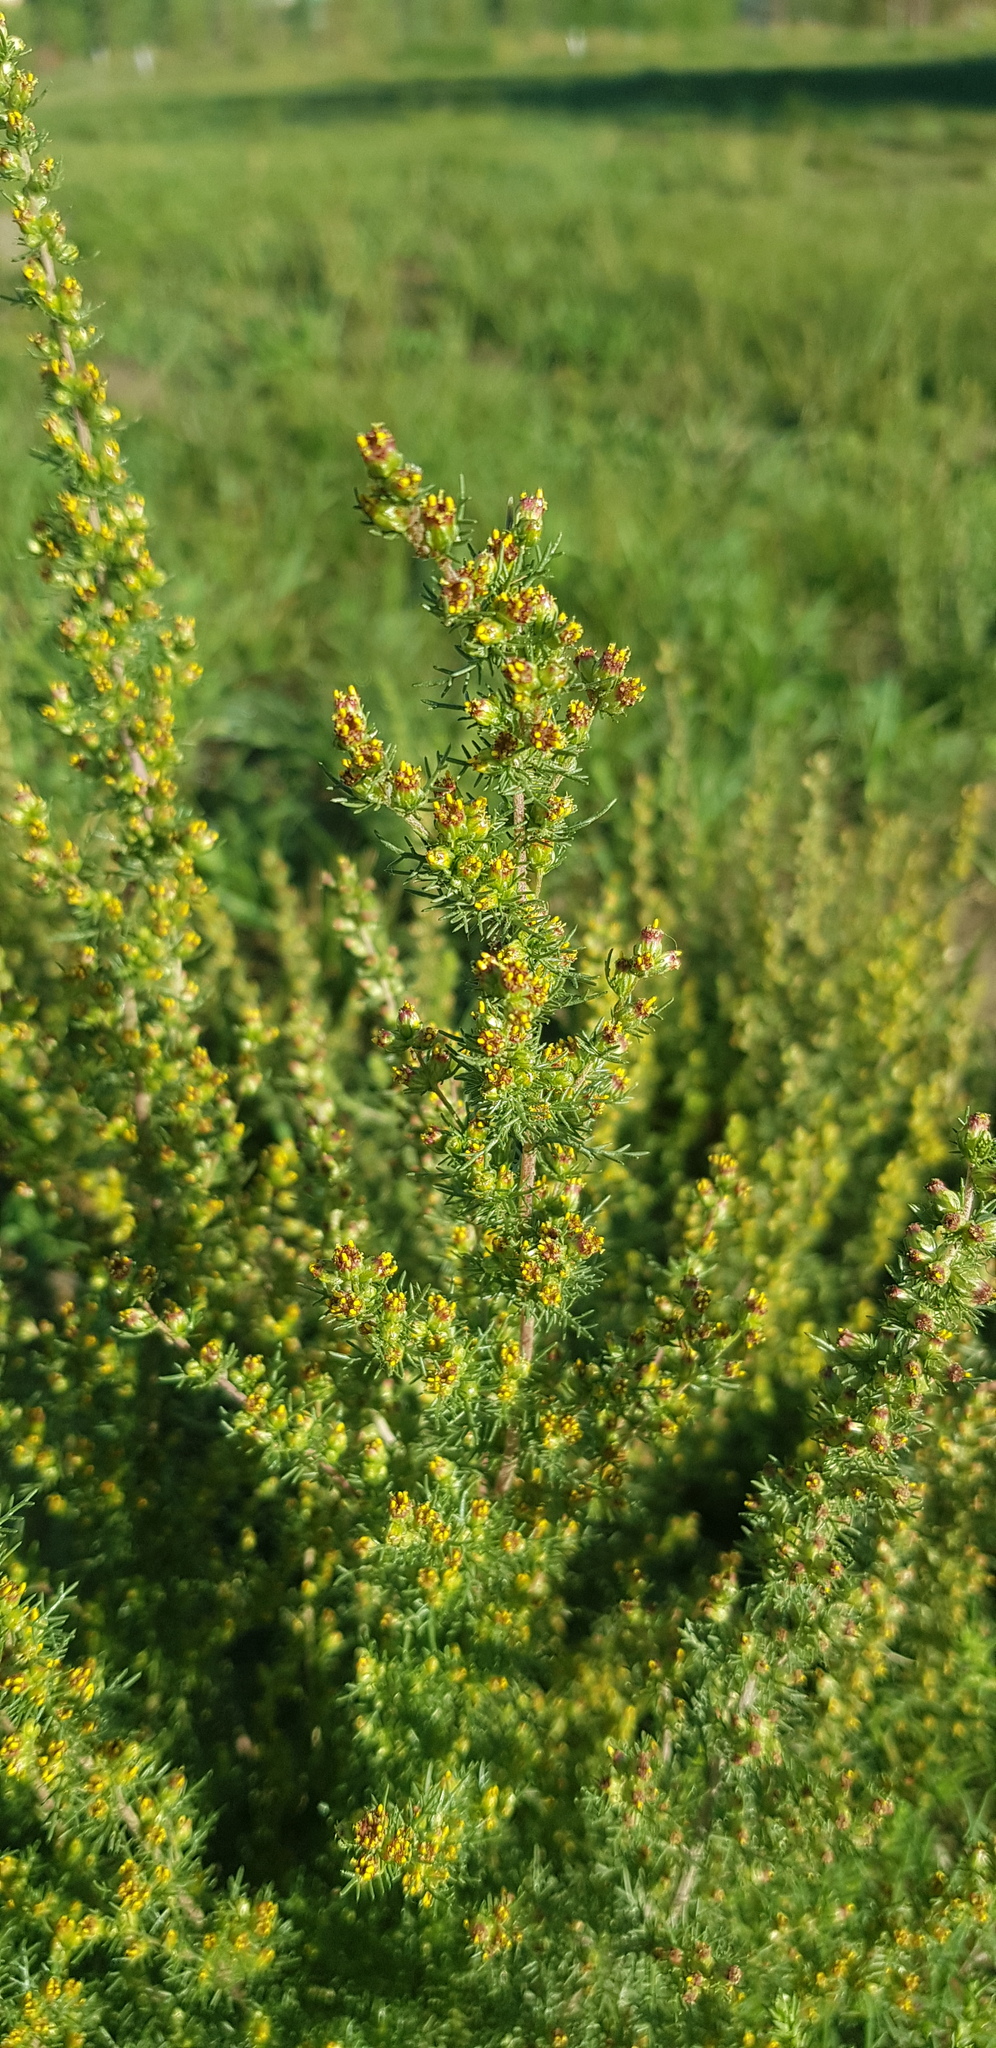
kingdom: Plantae
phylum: Tracheophyta
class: Magnoliopsida
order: Asterales
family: Asteraceae
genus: Neopallasia
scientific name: Neopallasia pectinata
